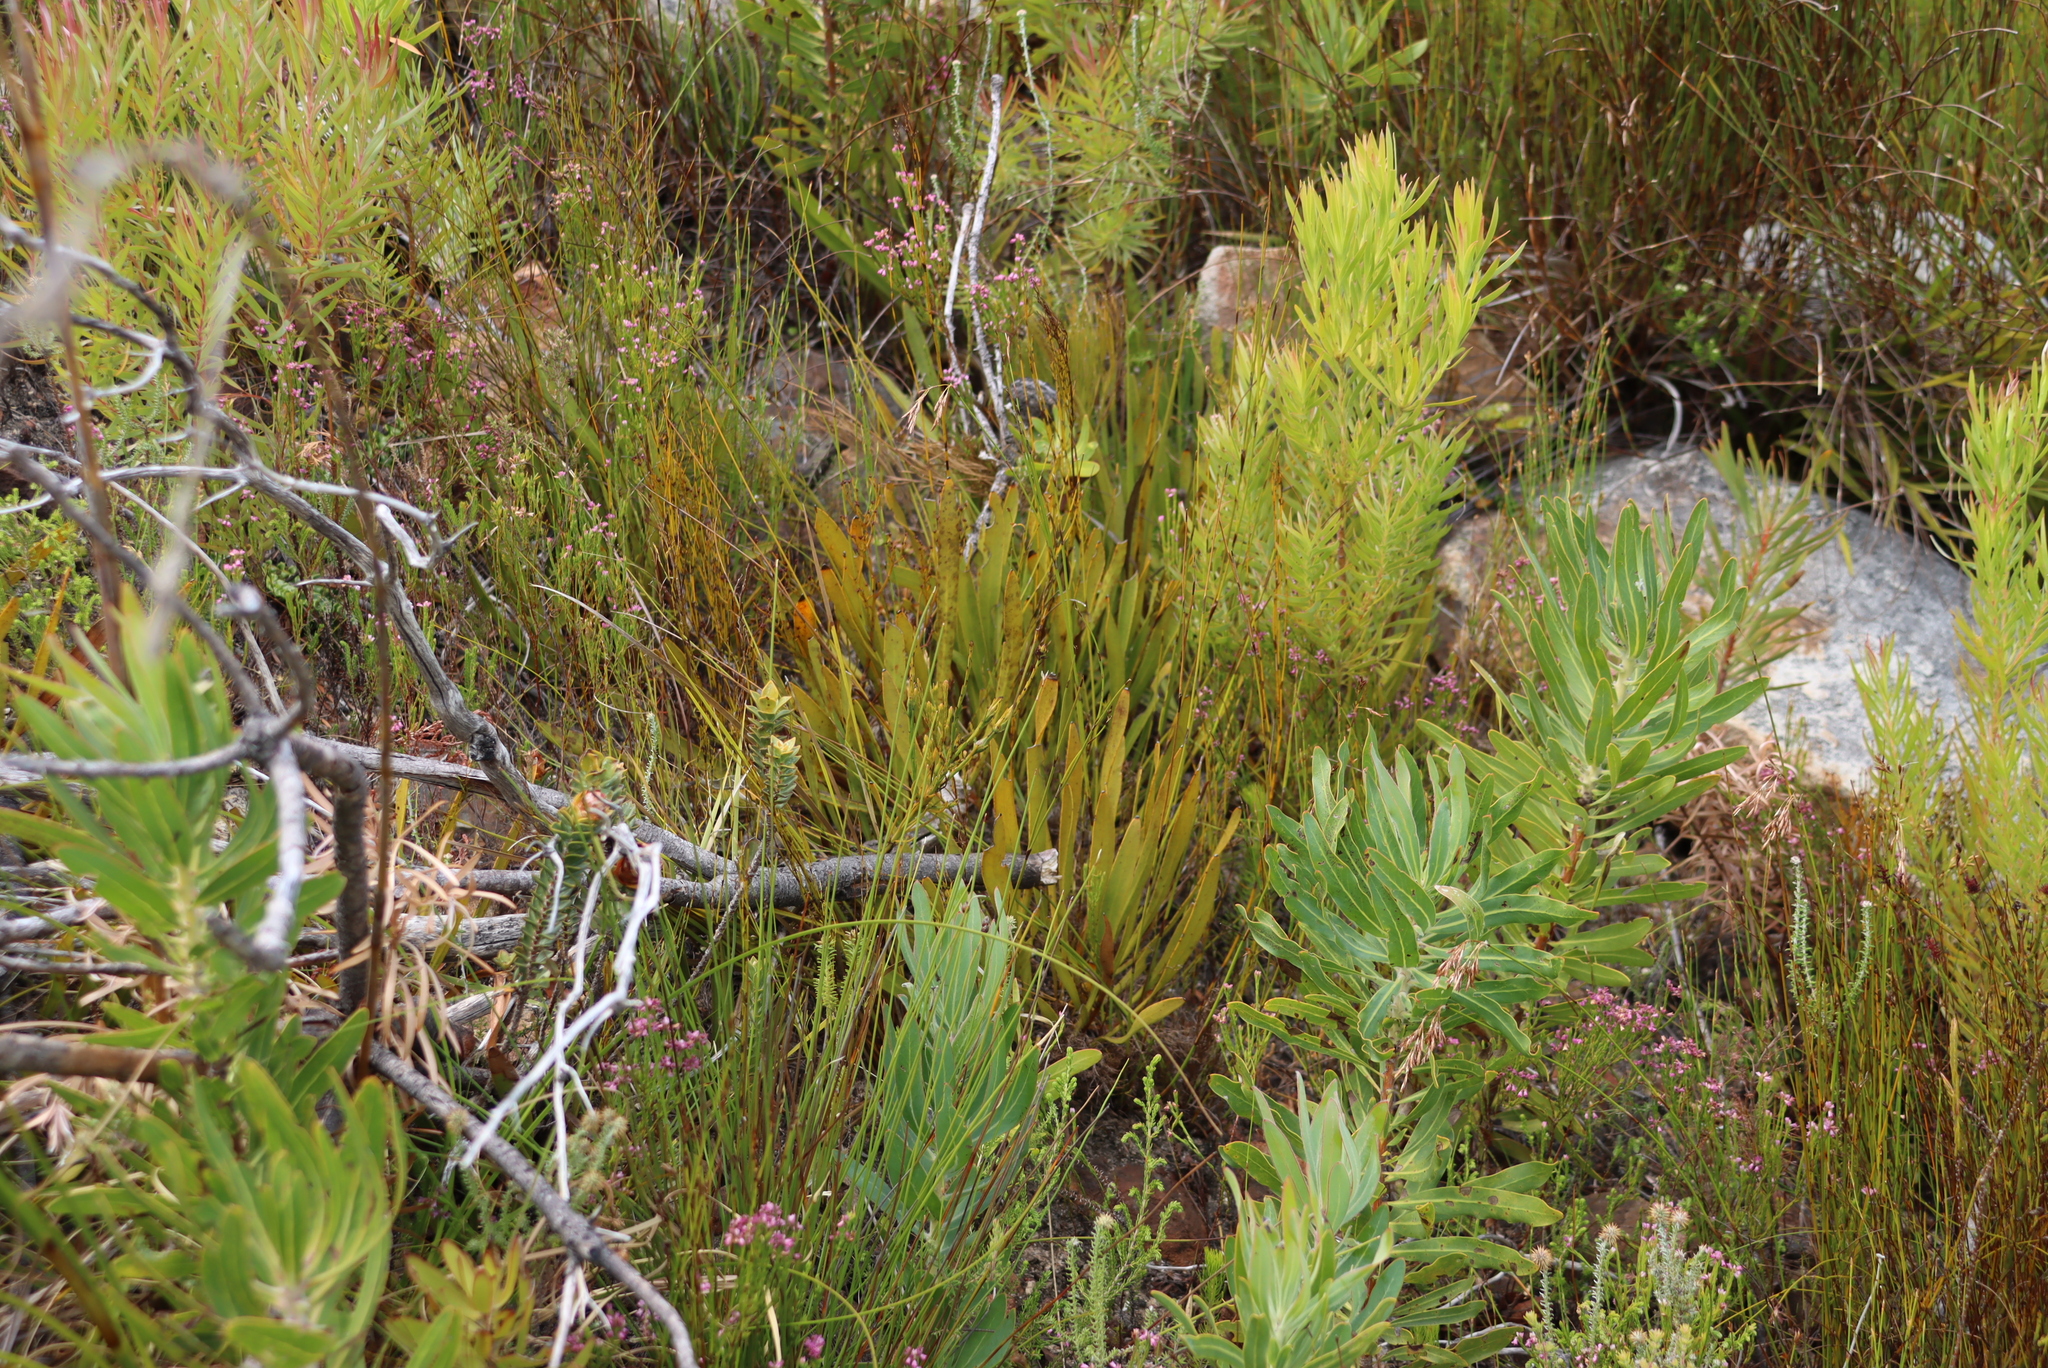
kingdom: Plantae
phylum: Tracheophyta
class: Magnoliopsida
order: Proteales
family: Proteaceae
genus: Protea
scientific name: Protea scabra
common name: Sandpaper-leaf sugarbush
